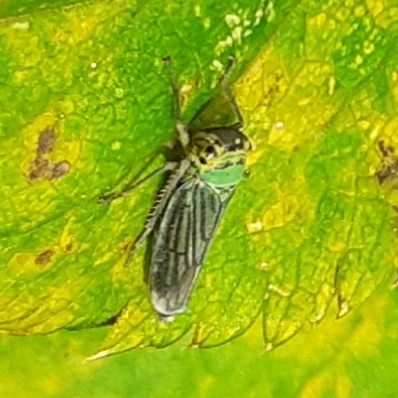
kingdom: Animalia
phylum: Arthropoda
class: Insecta
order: Hemiptera
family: Cicadellidae
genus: Cicadella
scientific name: Cicadella viridis
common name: Leafhopper
